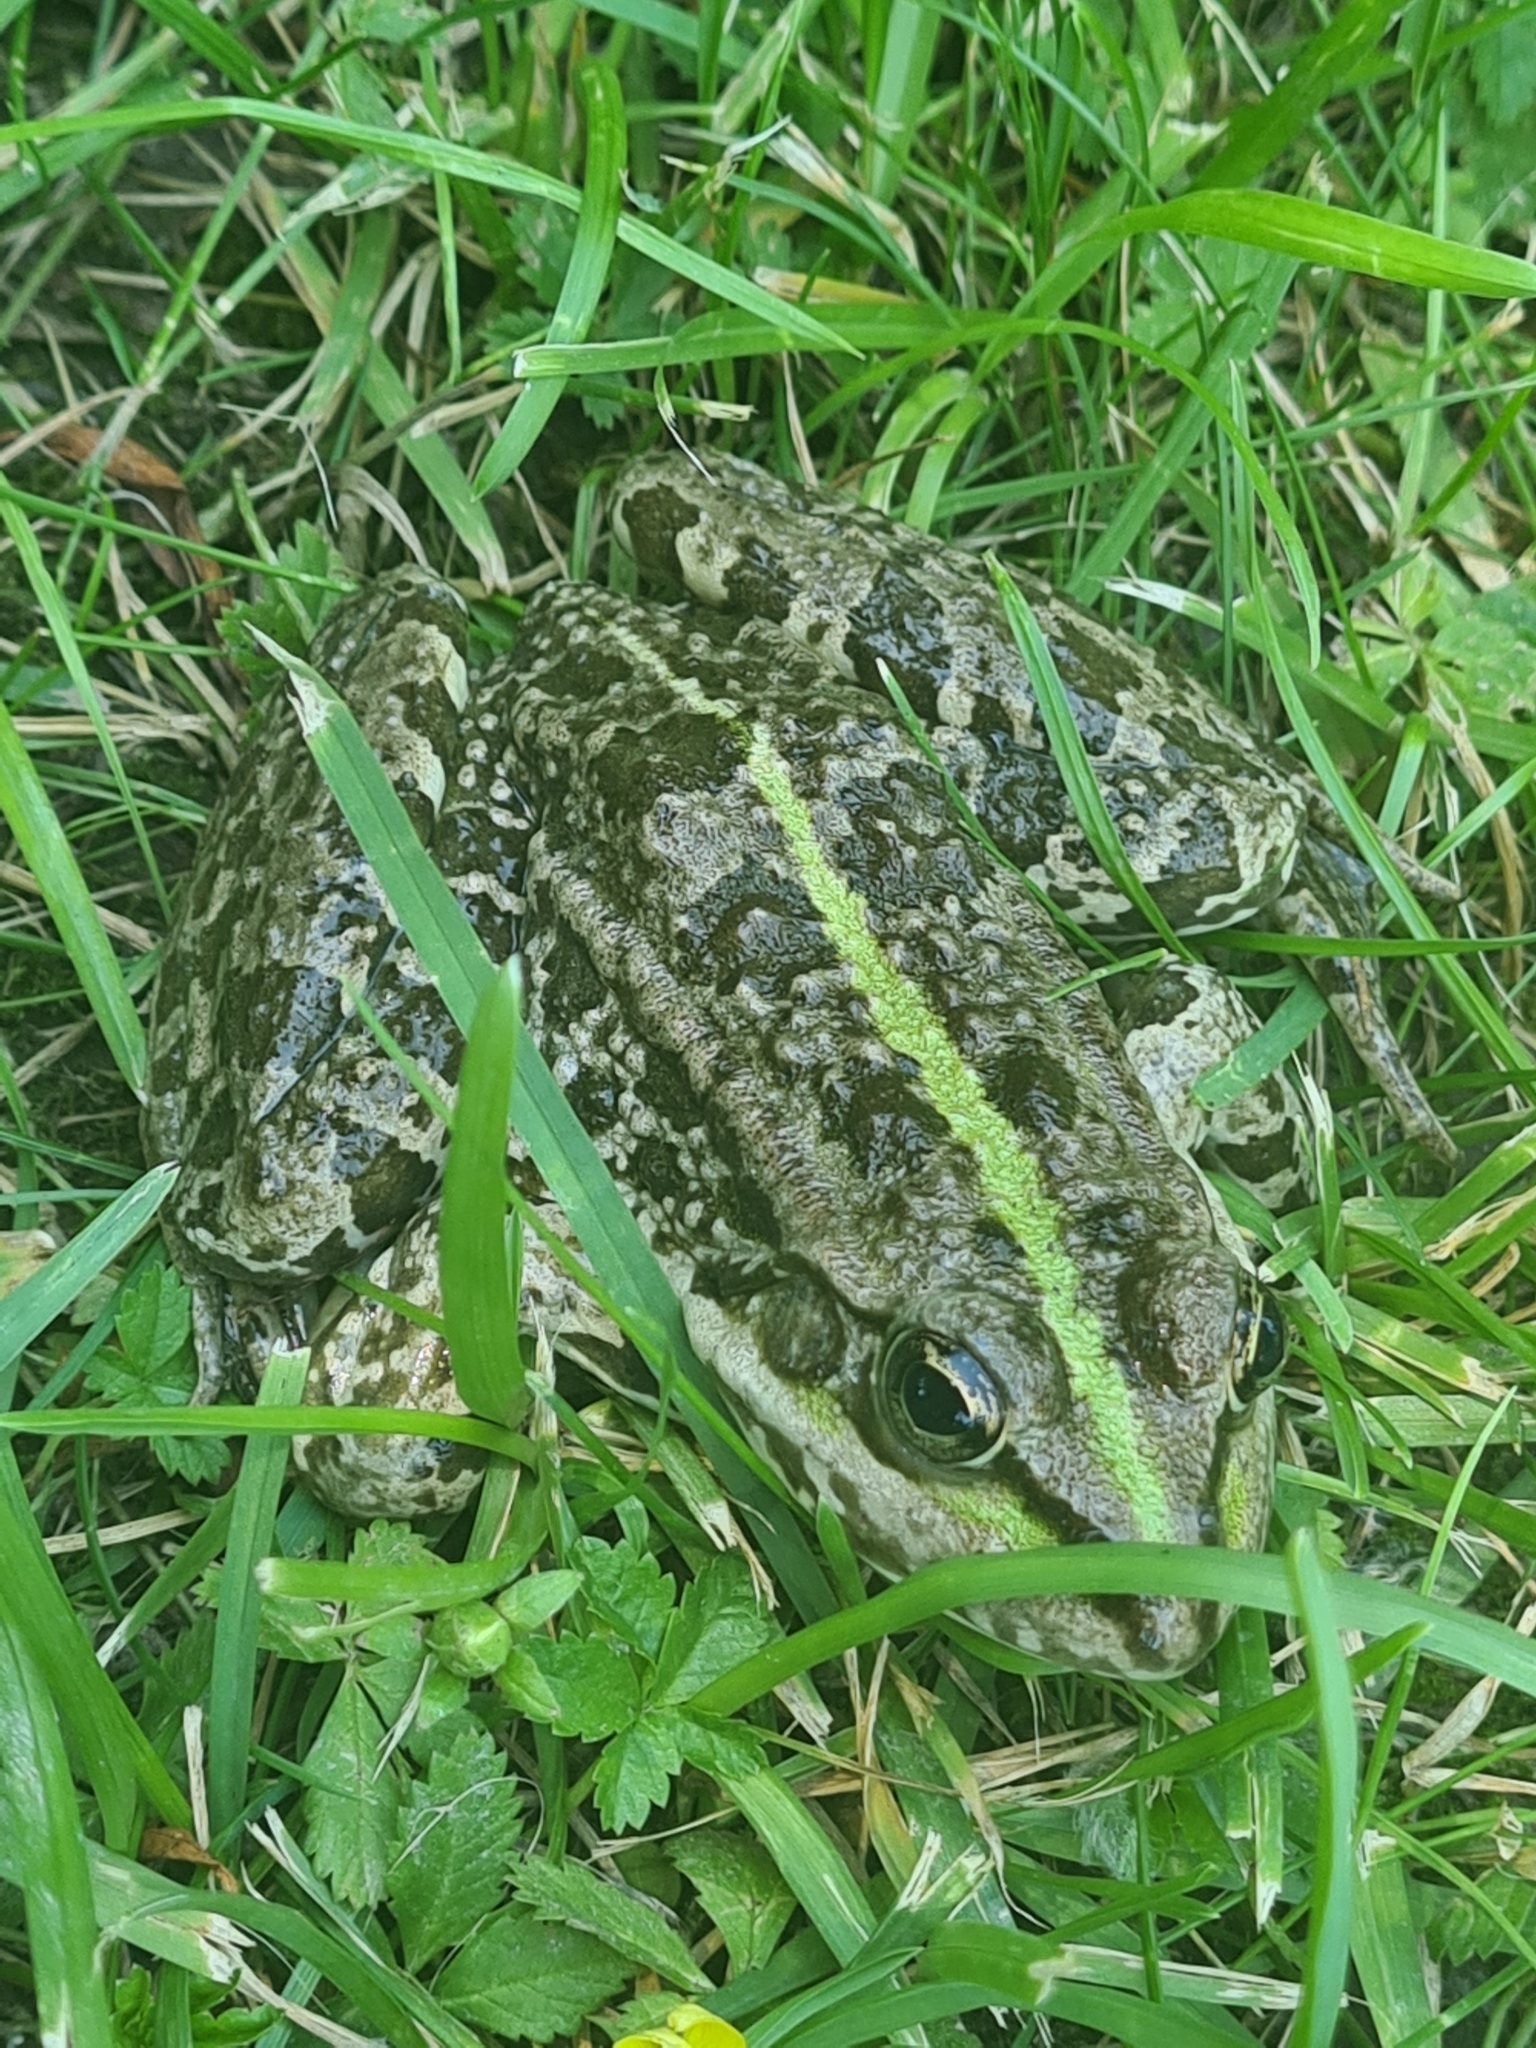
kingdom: Animalia
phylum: Chordata
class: Amphibia
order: Anura
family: Ranidae
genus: Pelophylax
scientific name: Pelophylax
